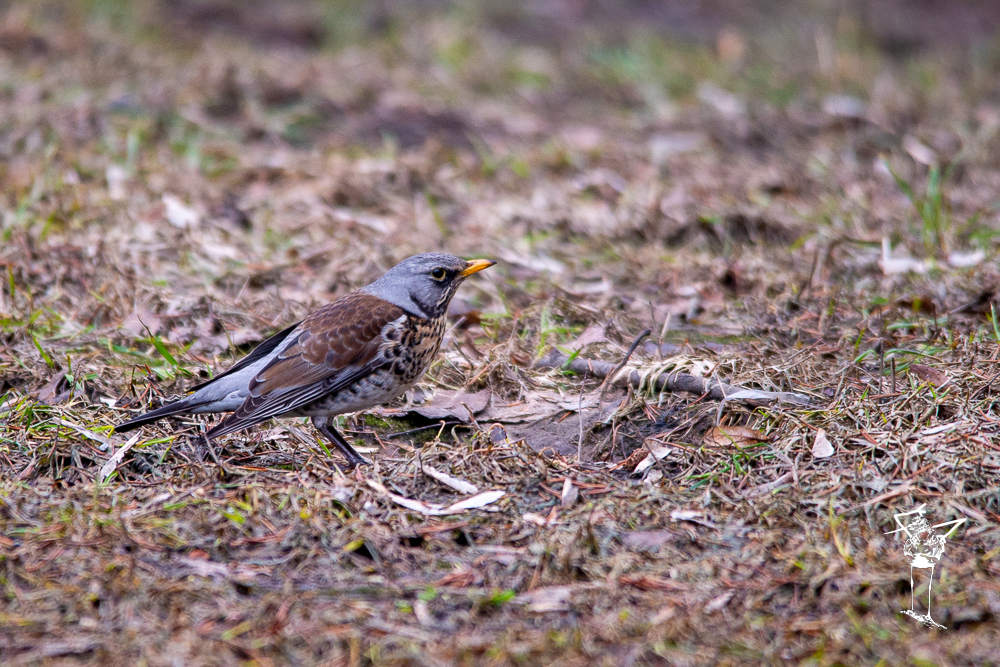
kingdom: Animalia
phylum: Chordata
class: Aves
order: Passeriformes
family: Turdidae
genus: Turdus
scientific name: Turdus pilaris
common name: Fieldfare
